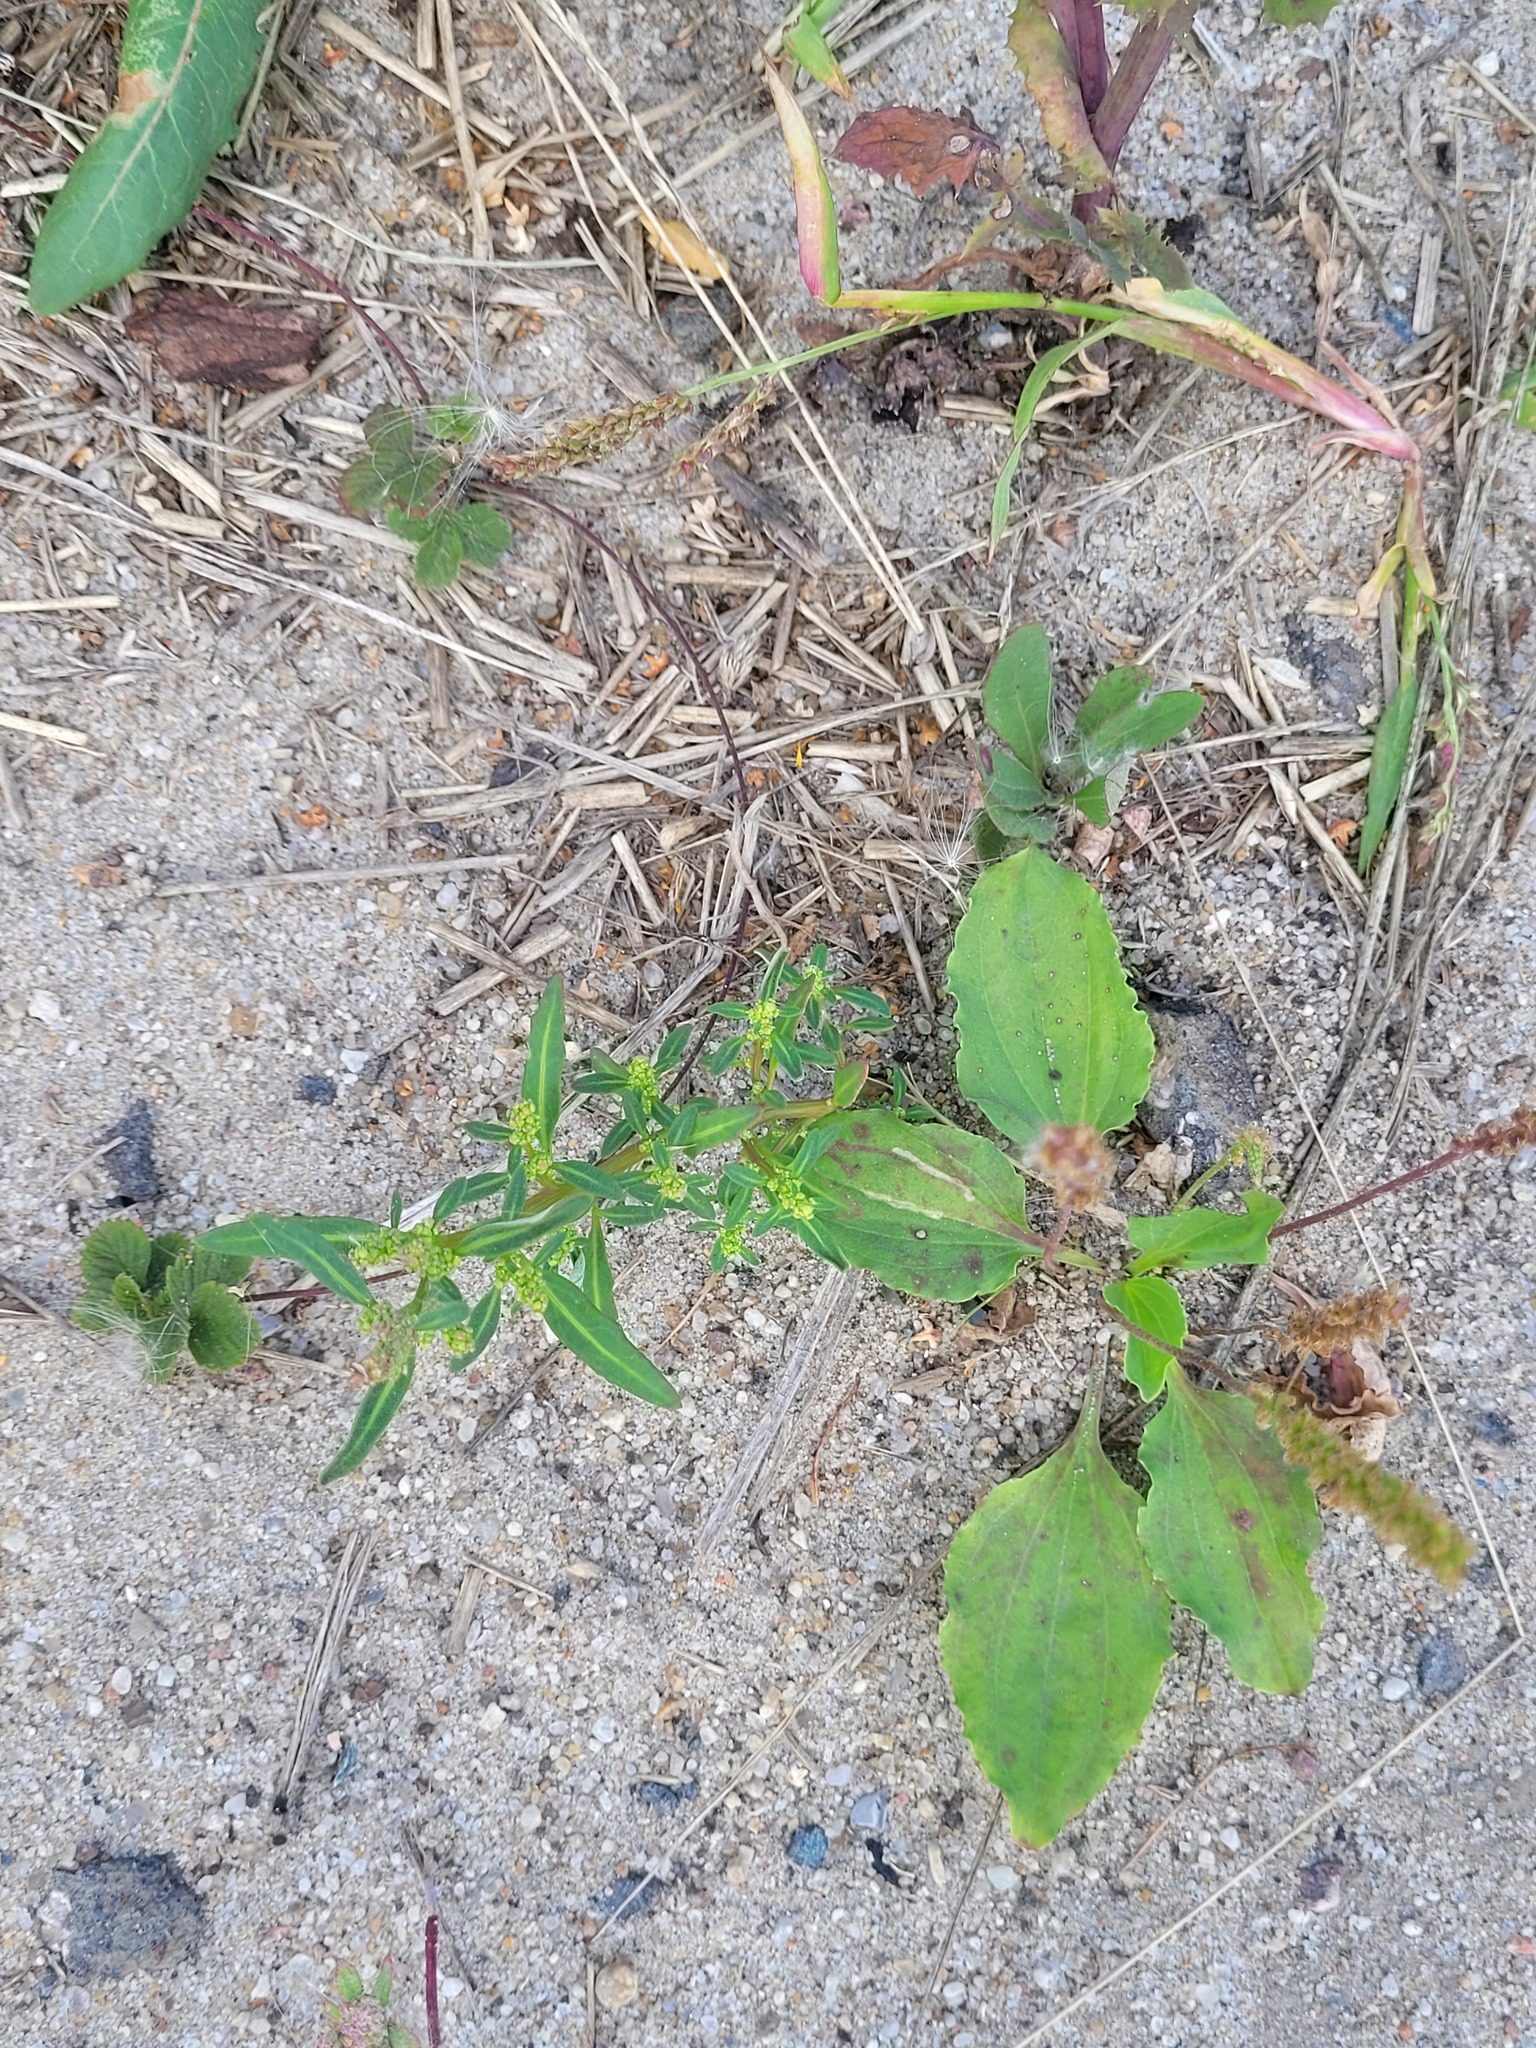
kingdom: Plantae
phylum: Tracheophyta
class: Magnoliopsida
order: Caryophyllales
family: Amaranthaceae
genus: Oxybasis
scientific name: Oxybasis glauca
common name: Glaucous goosefoot
